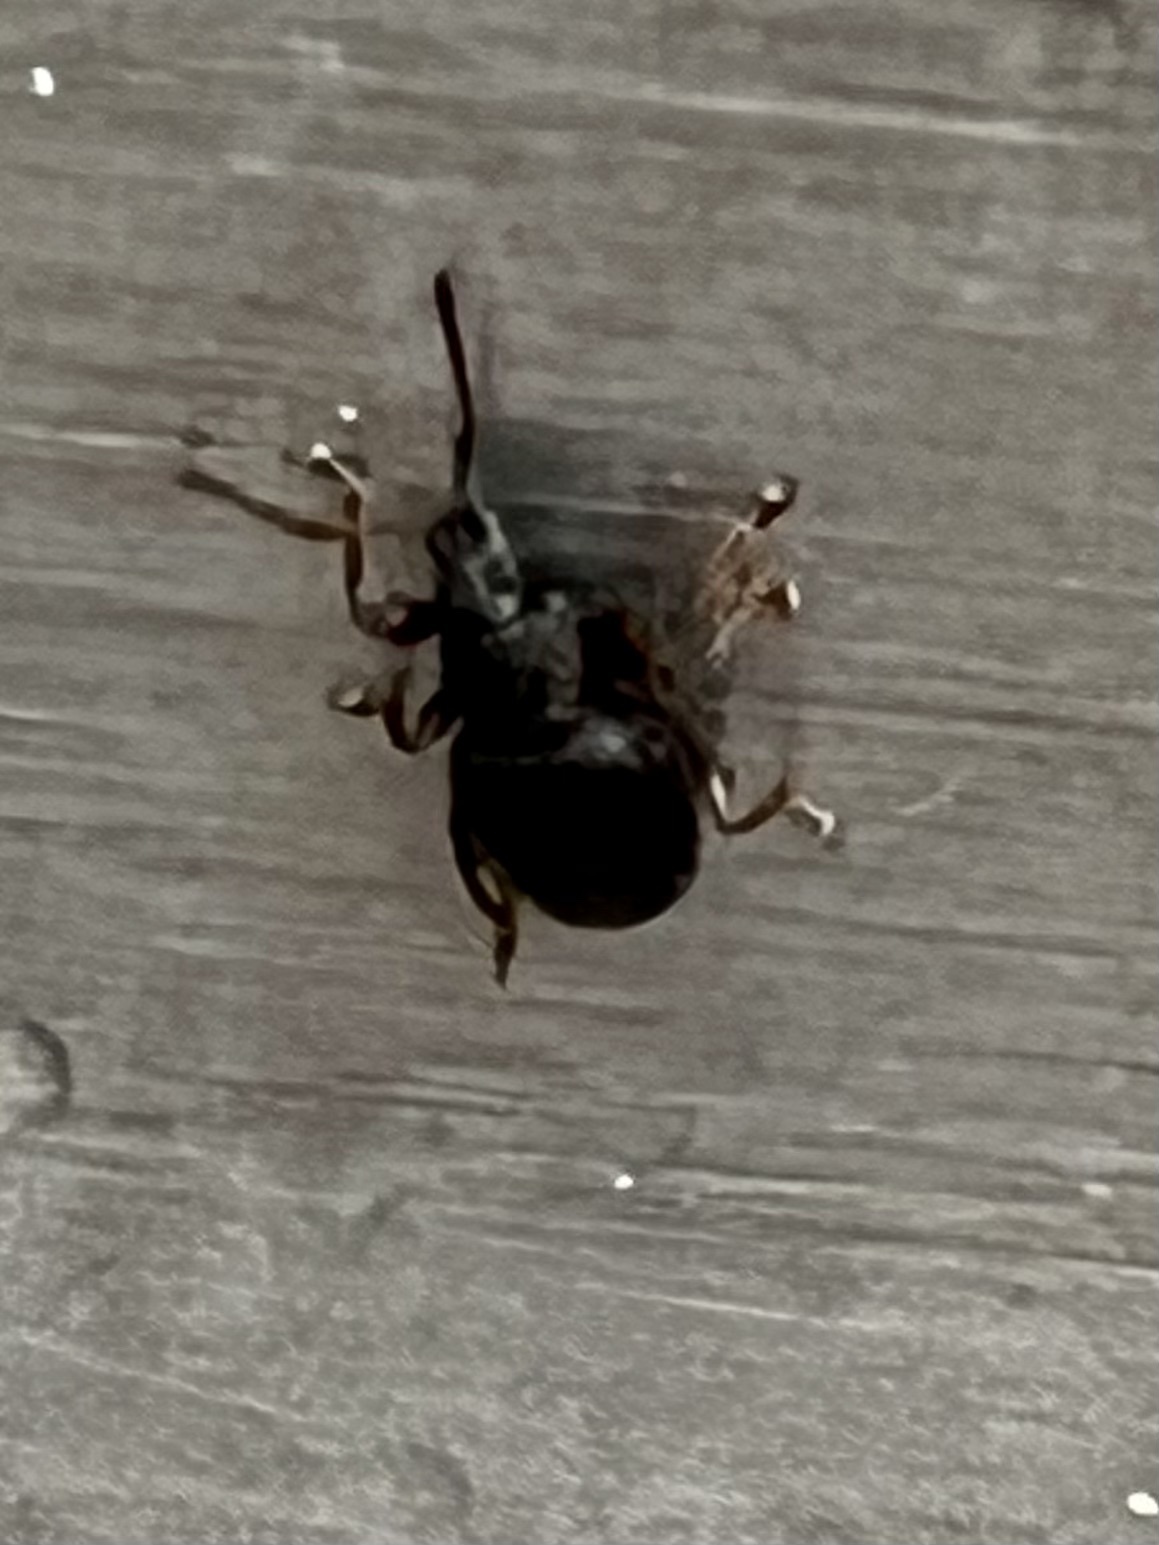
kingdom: Animalia
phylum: Arthropoda
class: Insecta
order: Coleoptera
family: Curculionidae
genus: Otiorhynchus
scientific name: Otiorhynchus ovatus
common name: Strawberry root weevil
